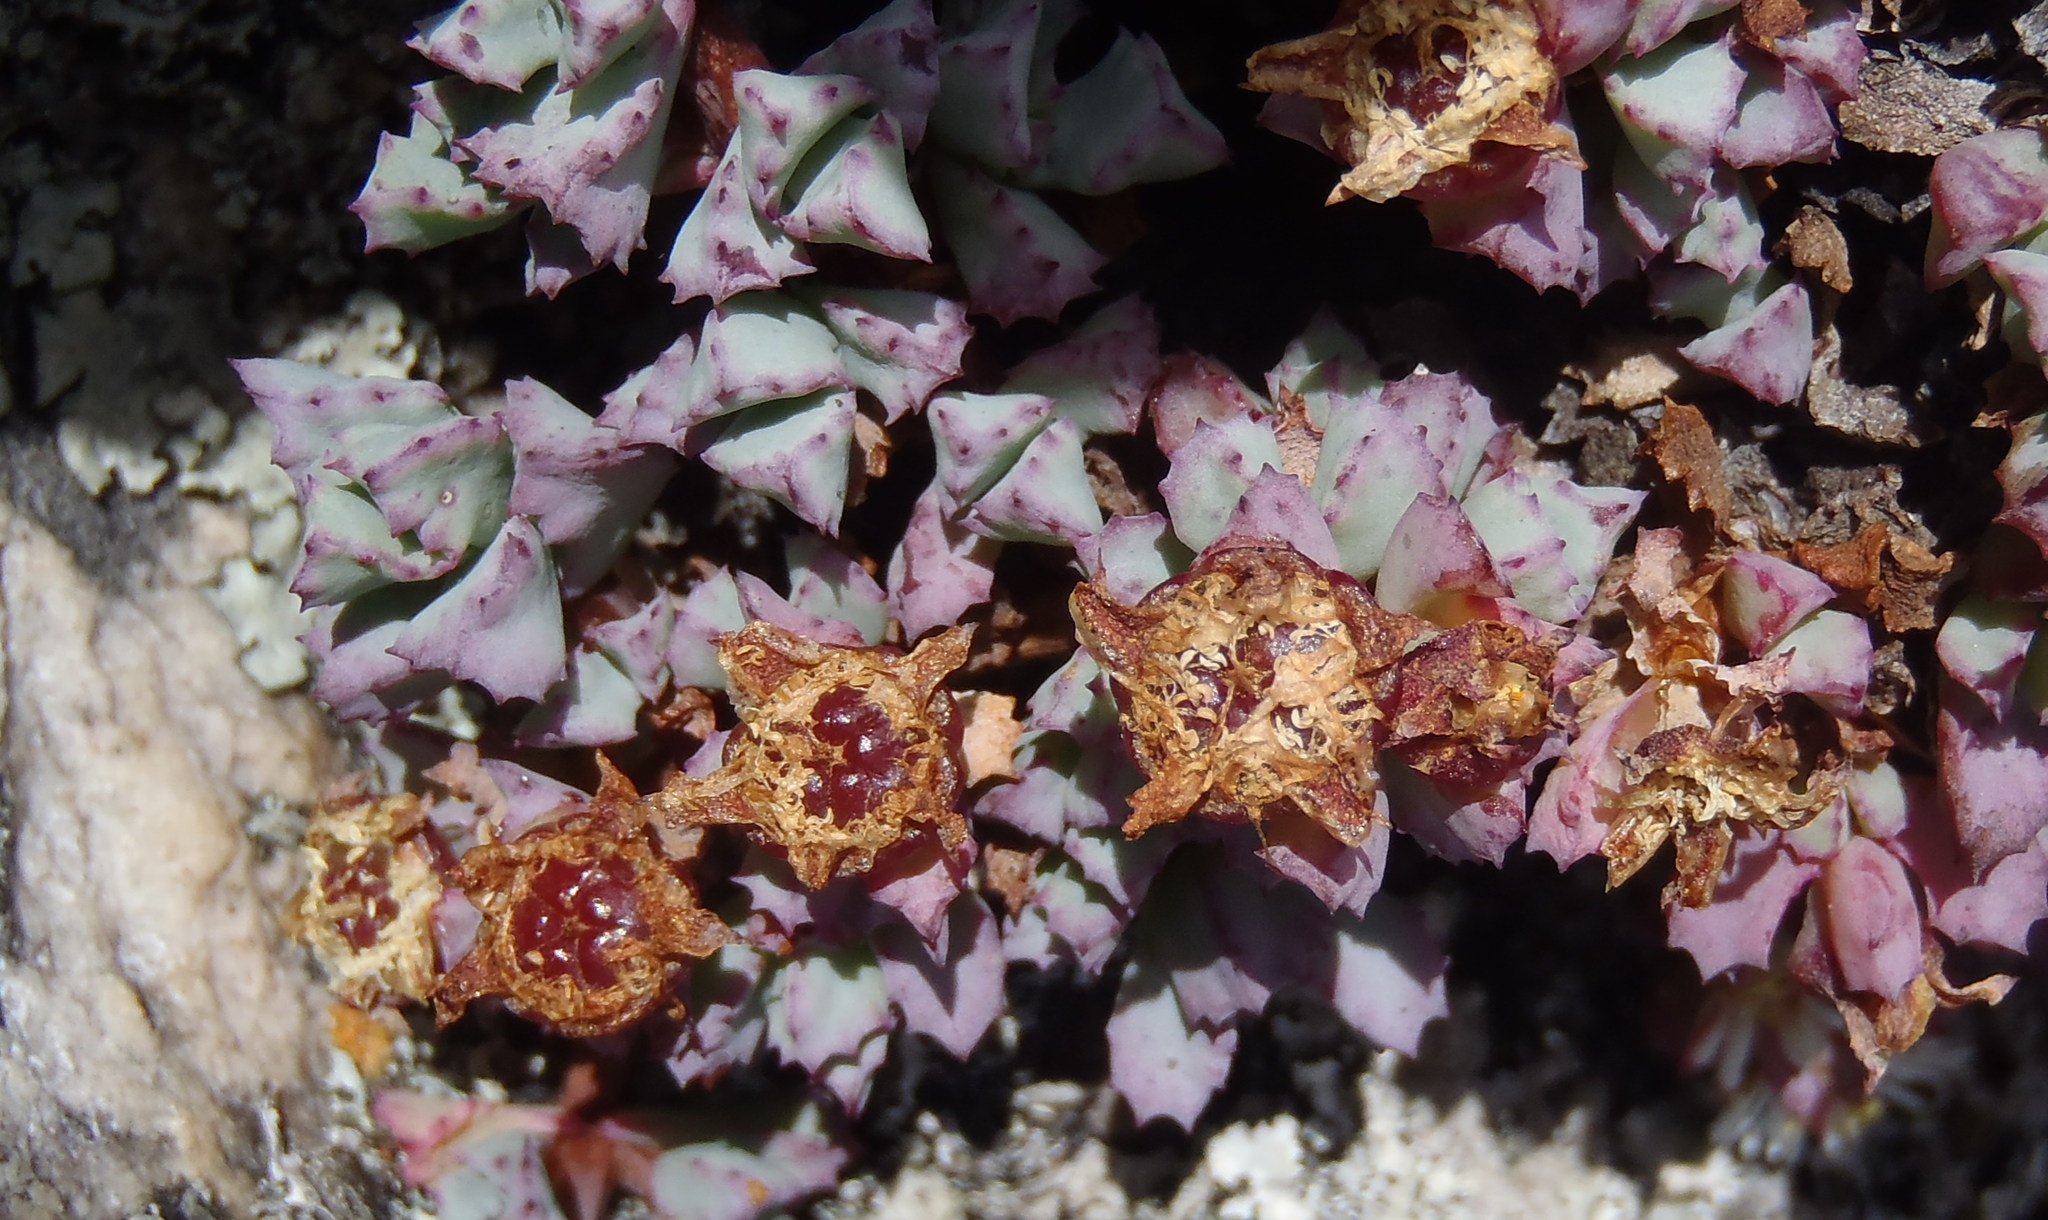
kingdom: Plantae
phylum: Tracheophyta
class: Magnoliopsida
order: Caryophyllales
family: Aizoaceae
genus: Oscularia
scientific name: Oscularia deltoides
